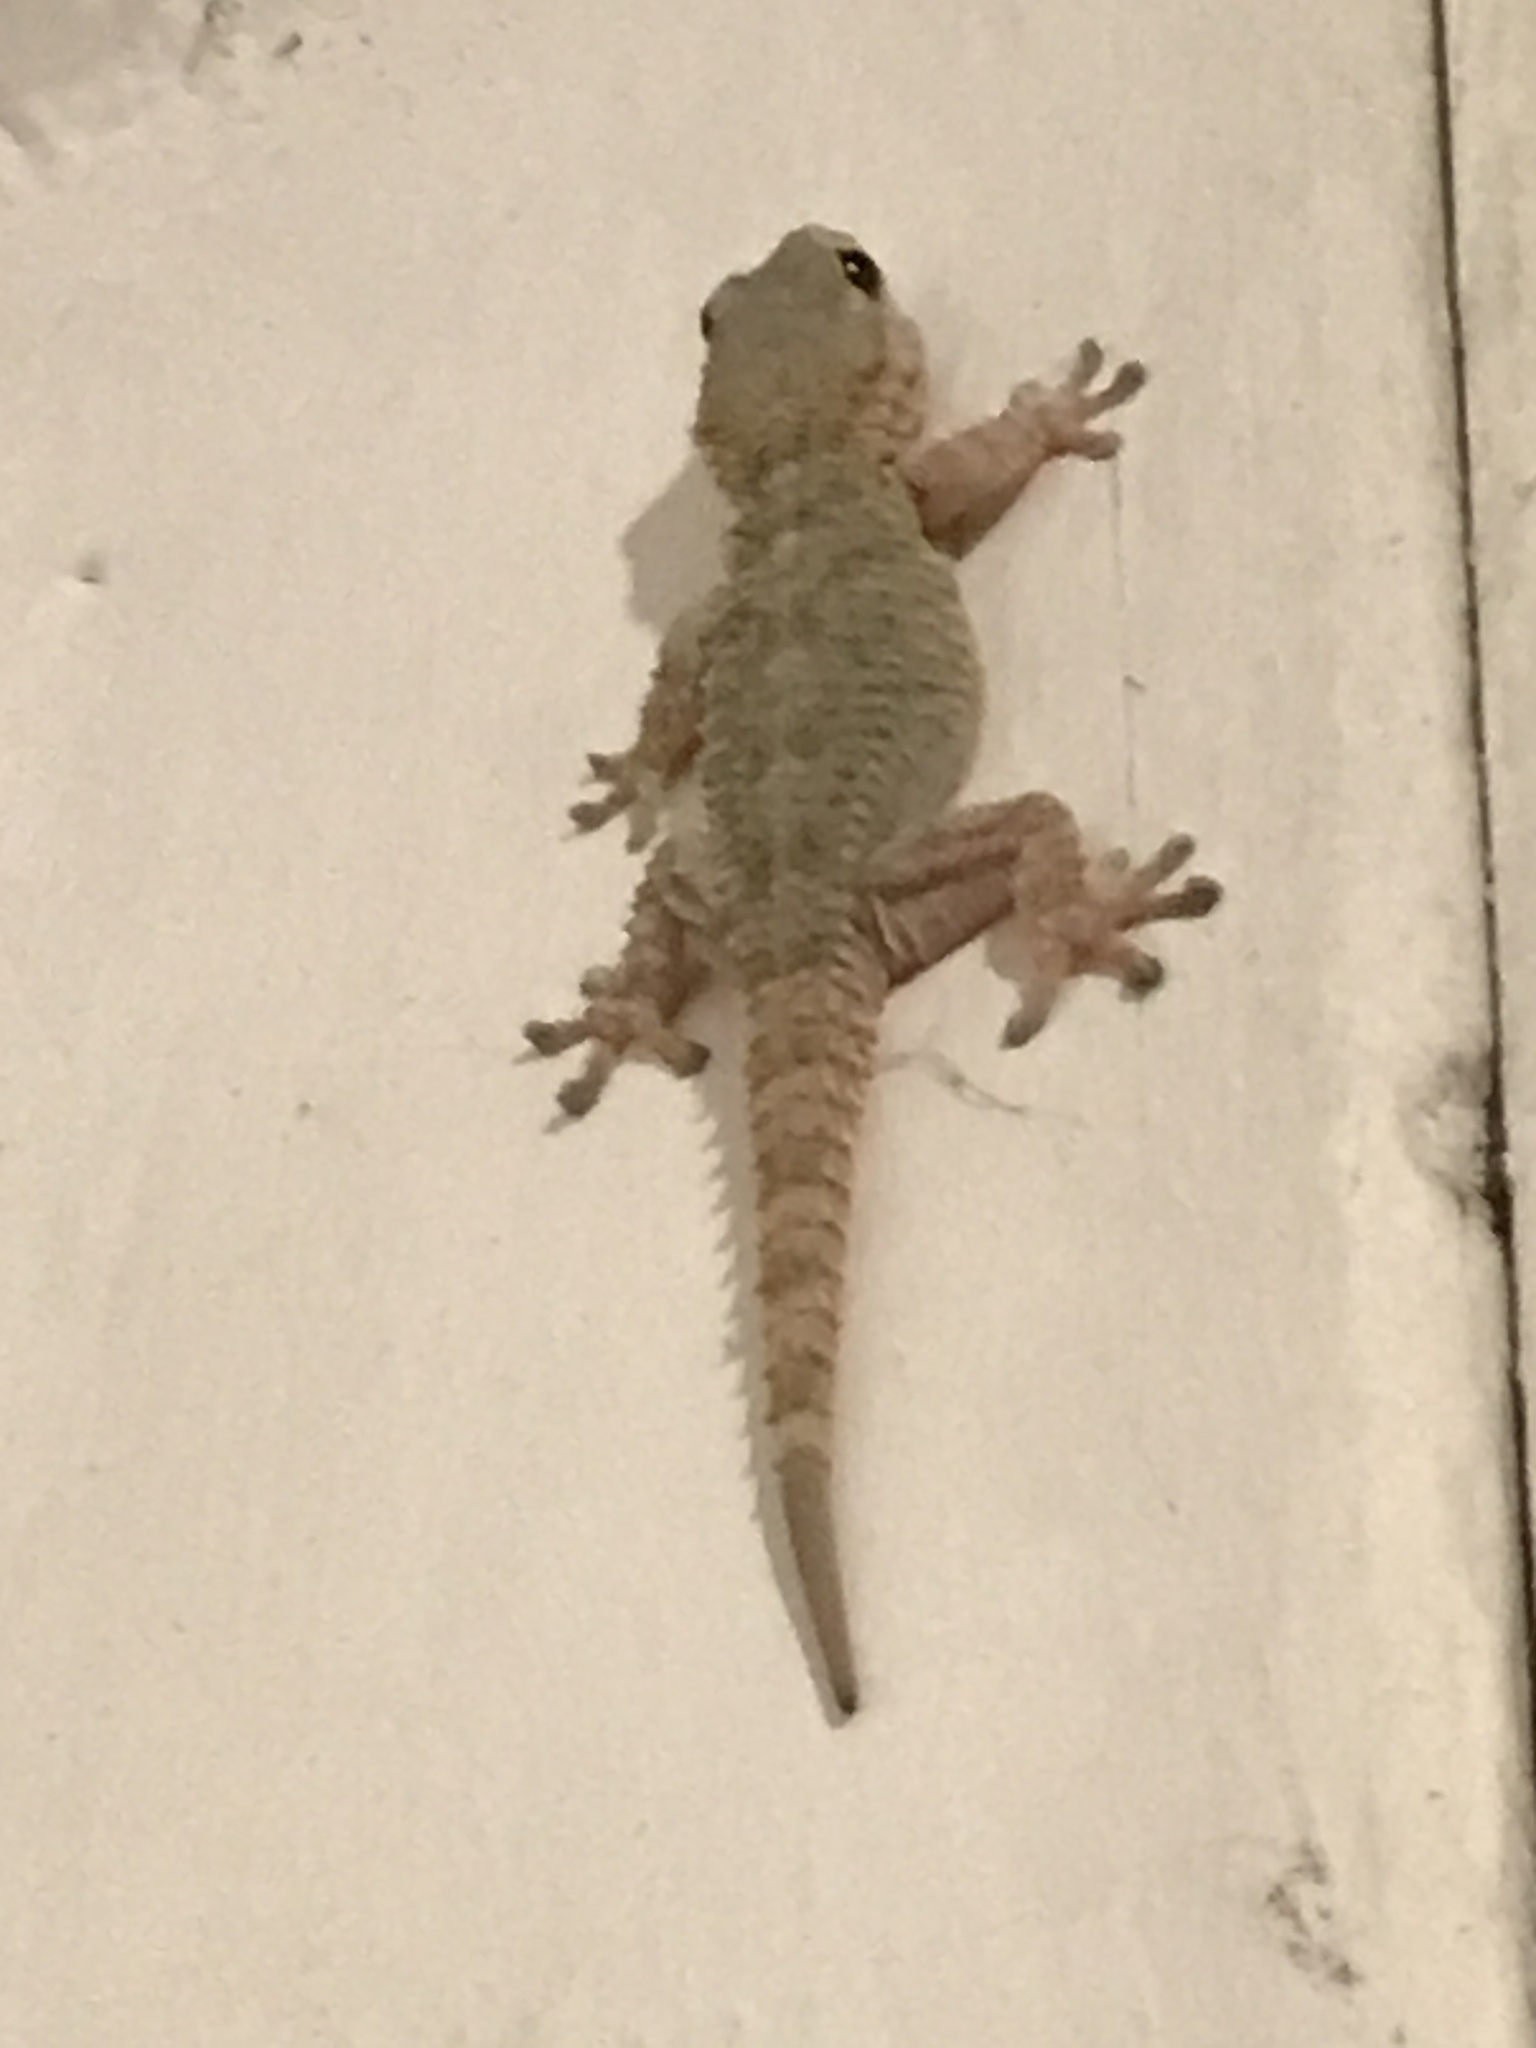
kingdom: Animalia
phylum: Chordata
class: Squamata
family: Phyllodactylidae
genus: Tarentola
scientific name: Tarentola mauritanica
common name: Moorish gecko
